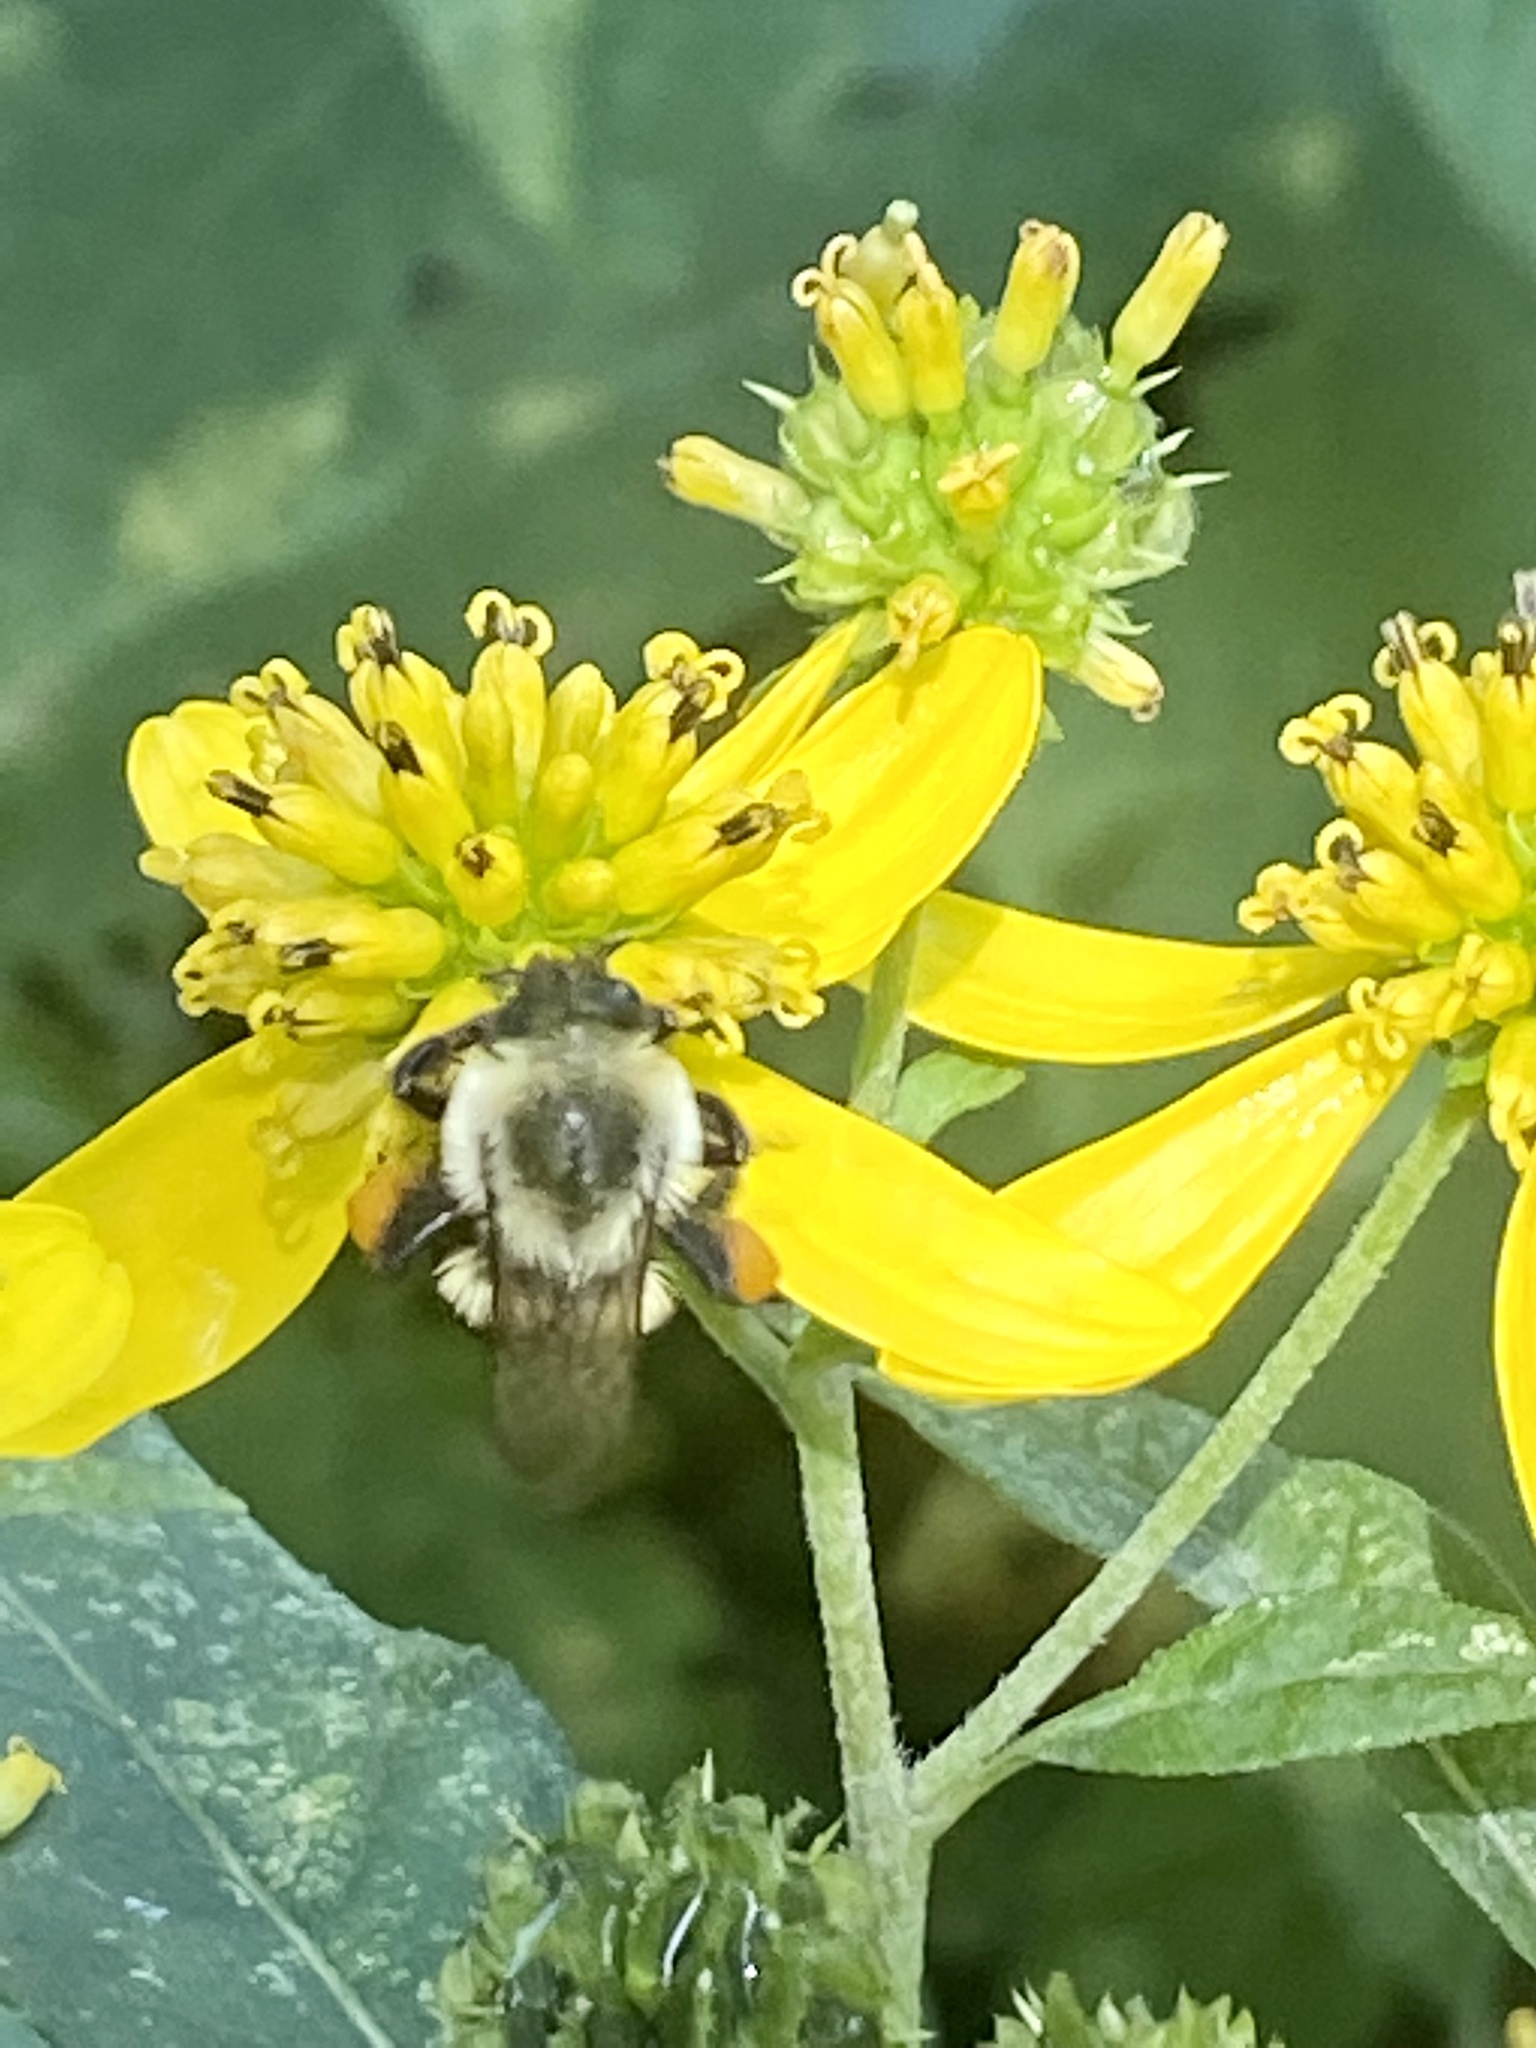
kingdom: Animalia
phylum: Arthropoda
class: Insecta
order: Hymenoptera
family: Apidae
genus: Bombus
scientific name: Bombus impatiens
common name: Common eastern bumble bee
